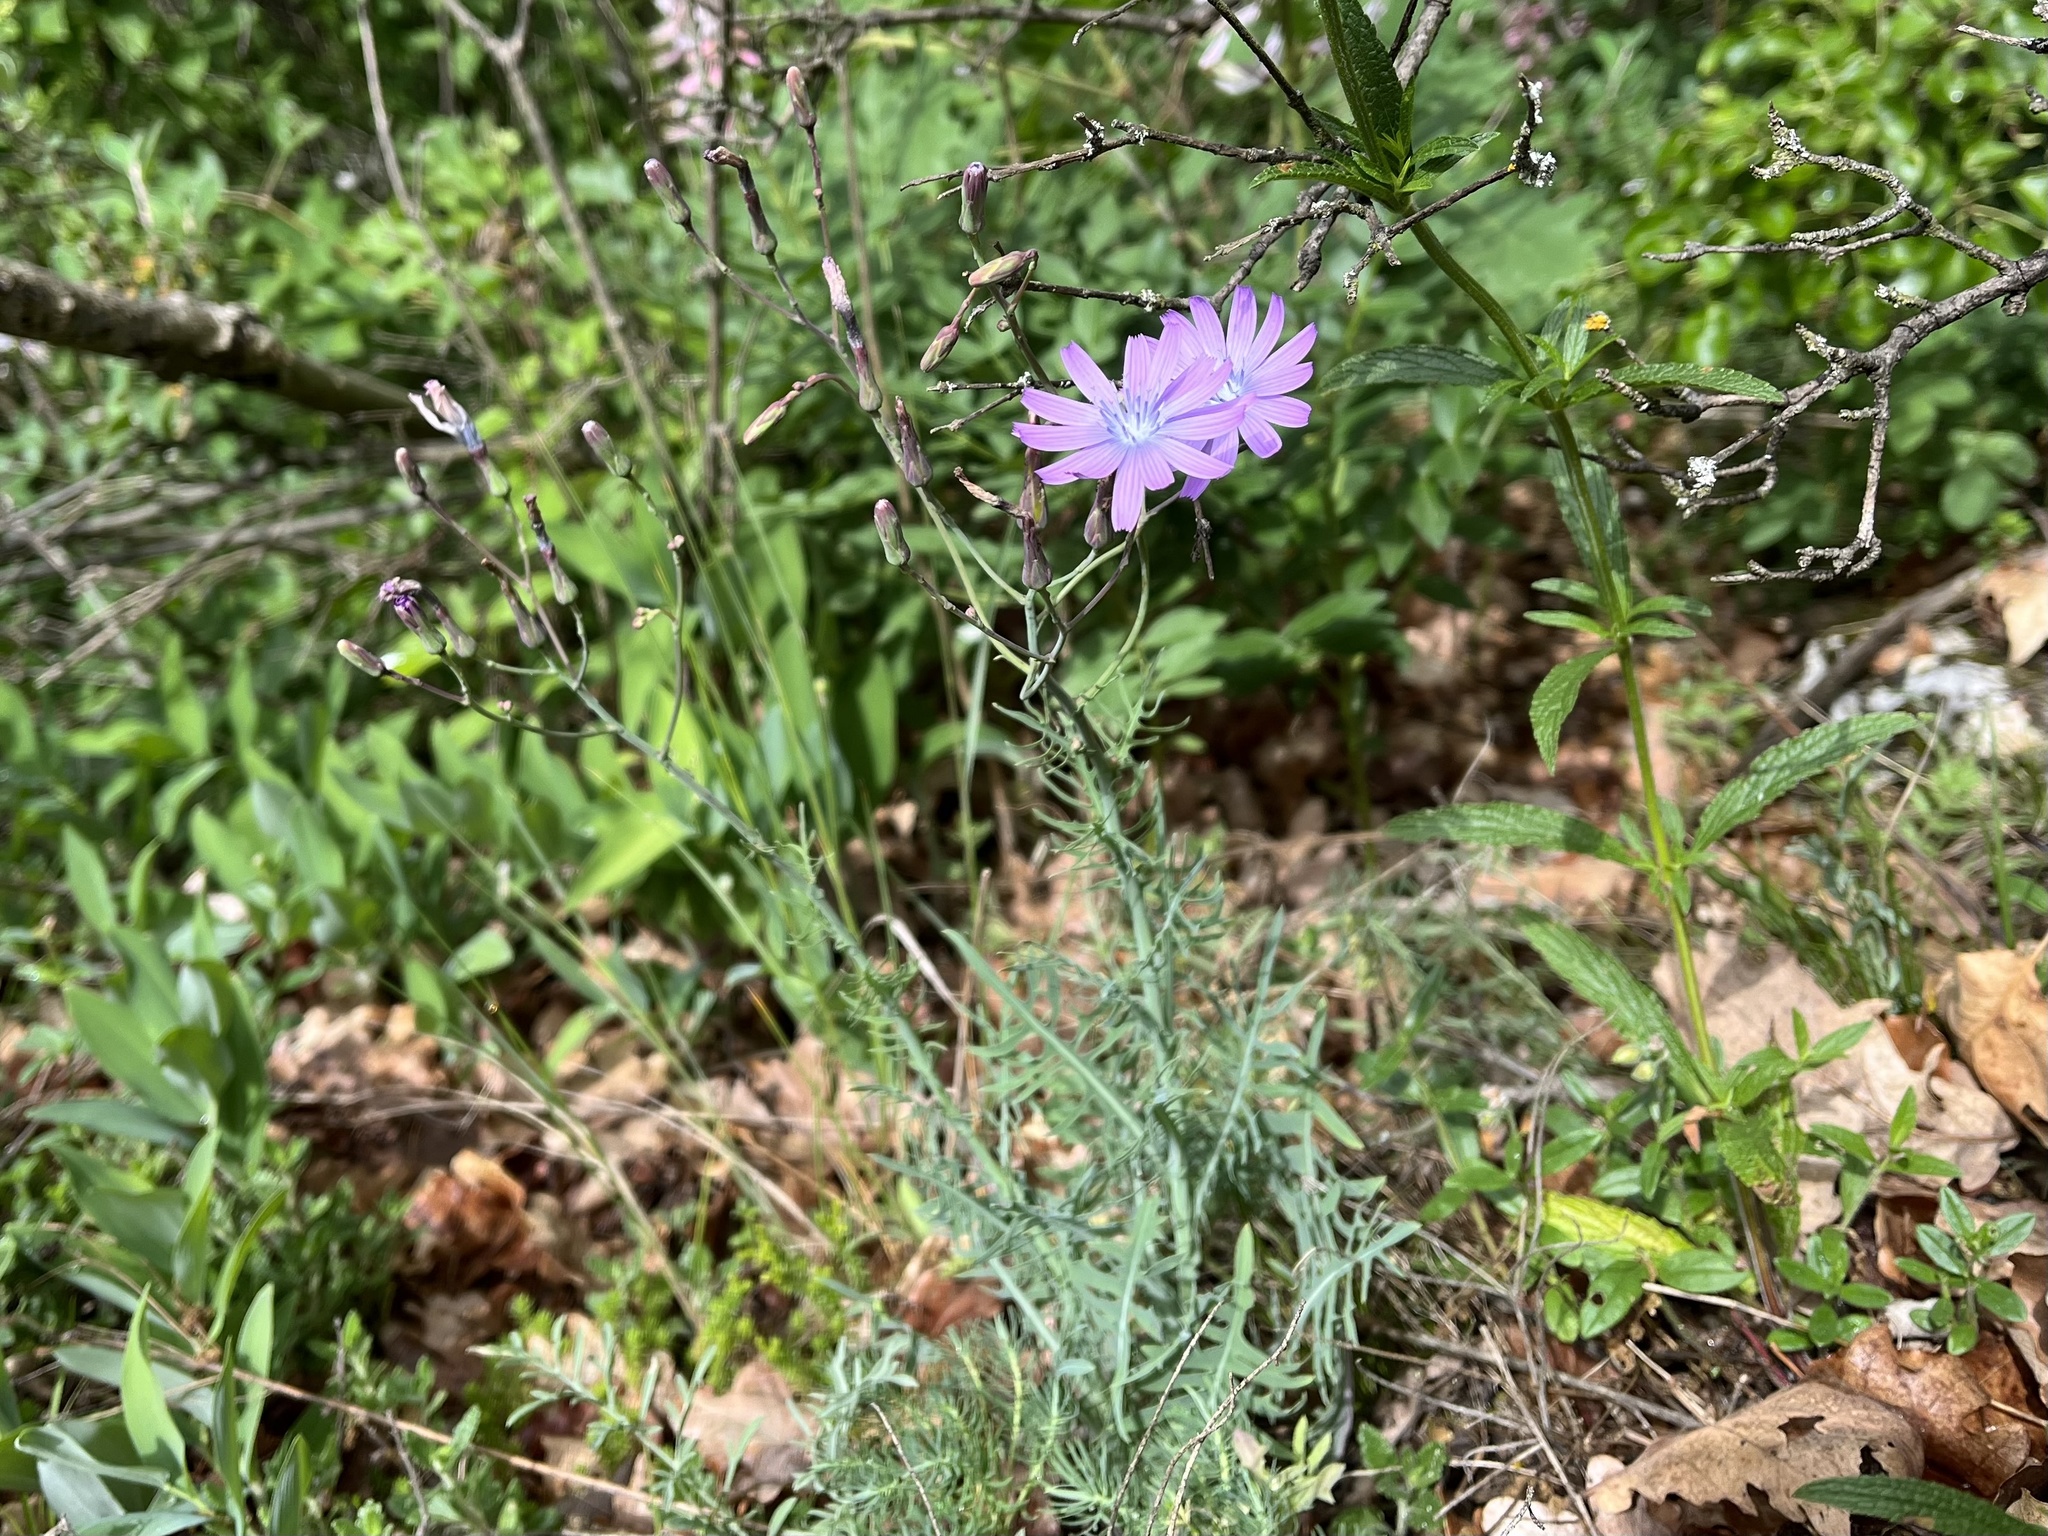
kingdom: Plantae
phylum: Tracheophyta
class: Magnoliopsida
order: Asterales
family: Asteraceae
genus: Lactuca
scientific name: Lactuca perennis
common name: Mountain lettuce
